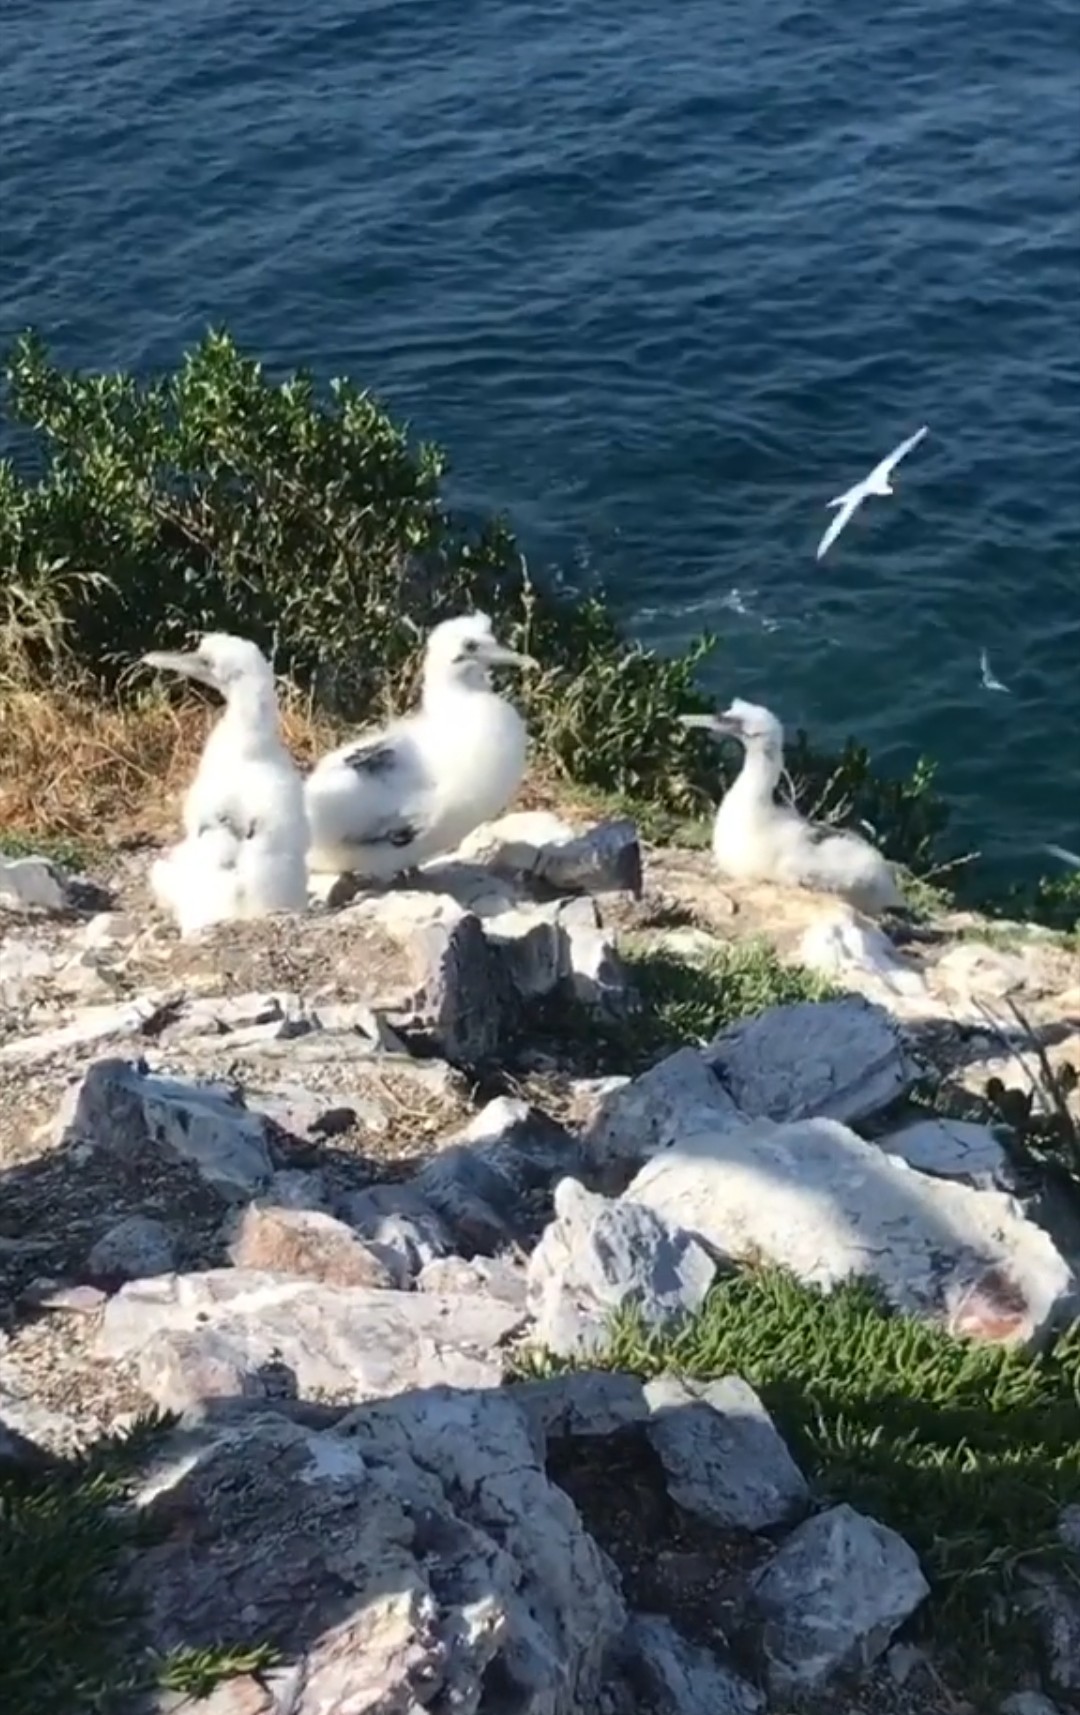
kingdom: Animalia
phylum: Chordata
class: Aves
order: Suliformes
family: Sulidae
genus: Morus
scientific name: Morus serrator
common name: Australasian gannet
